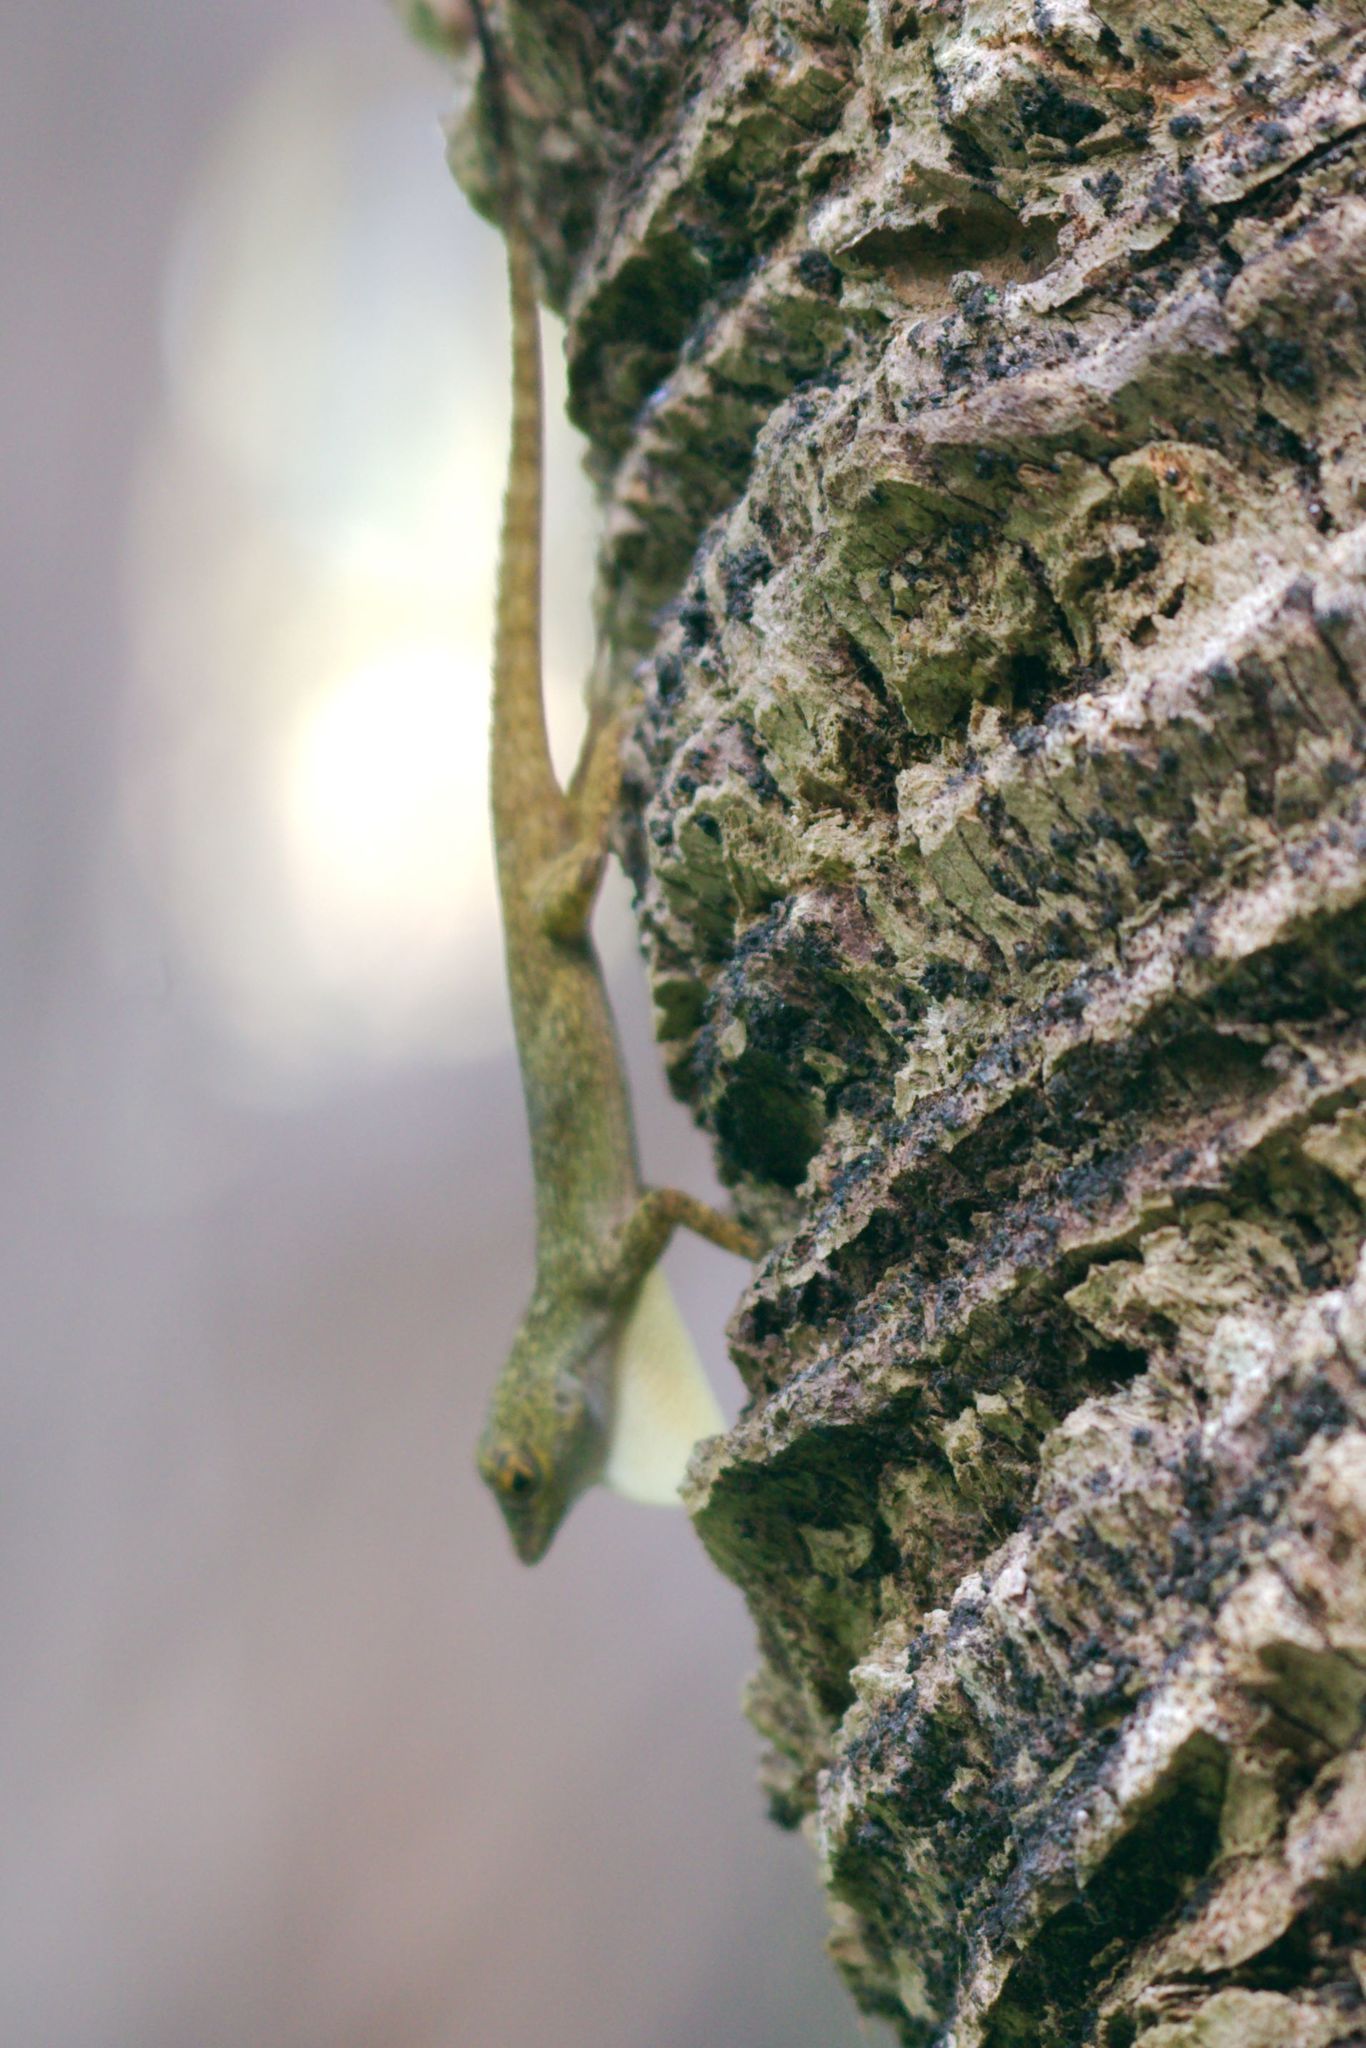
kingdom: Animalia
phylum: Chordata
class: Squamata
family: Dactyloidae
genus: Anolis
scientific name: Anolis distichus
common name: Bark anole
